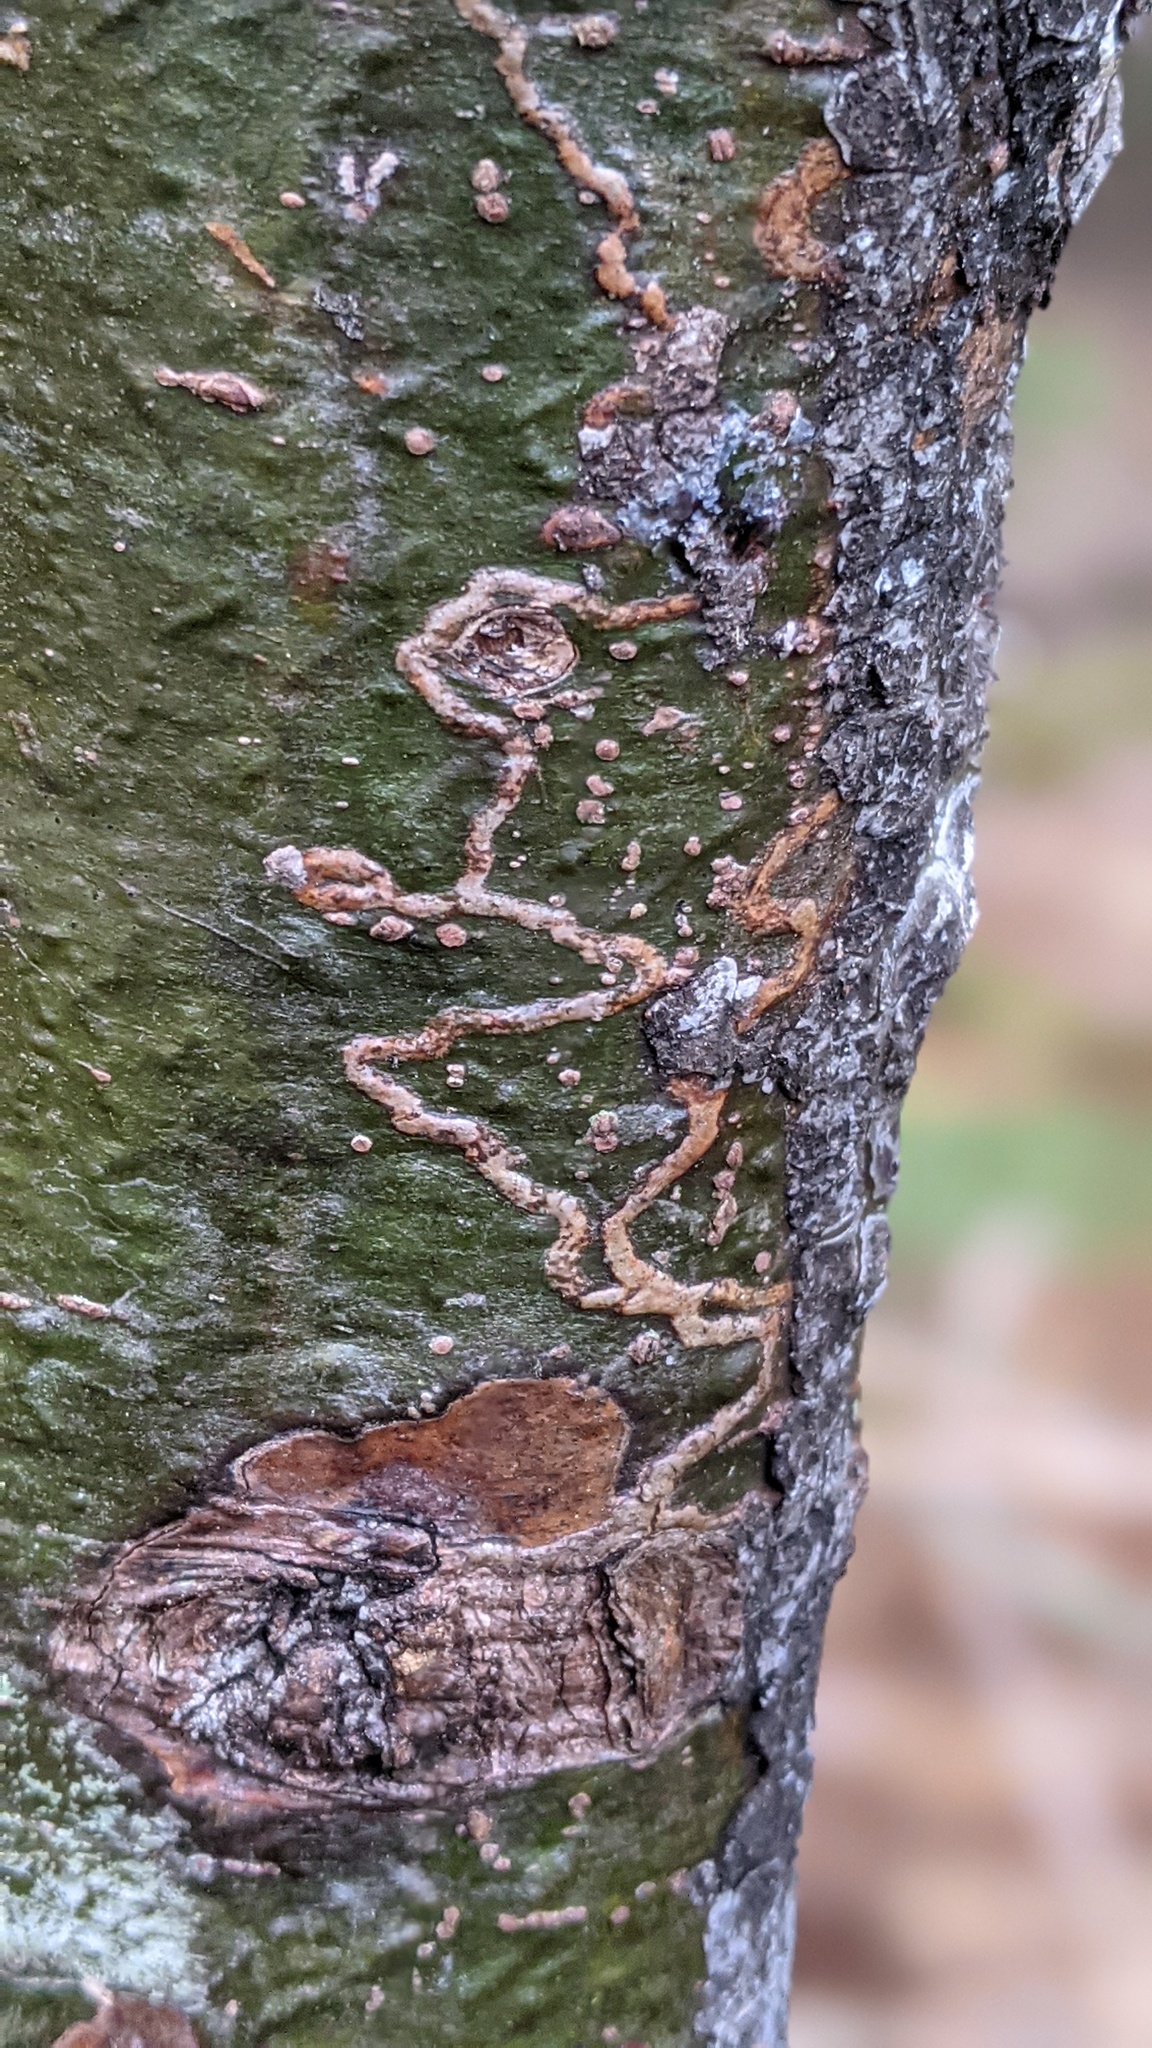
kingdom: Animalia
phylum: Arthropoda
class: Insecta
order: Lepidoptera
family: Gracillariidae
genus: Marmara
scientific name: Marmara fasciella
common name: White pine barkminer moth
